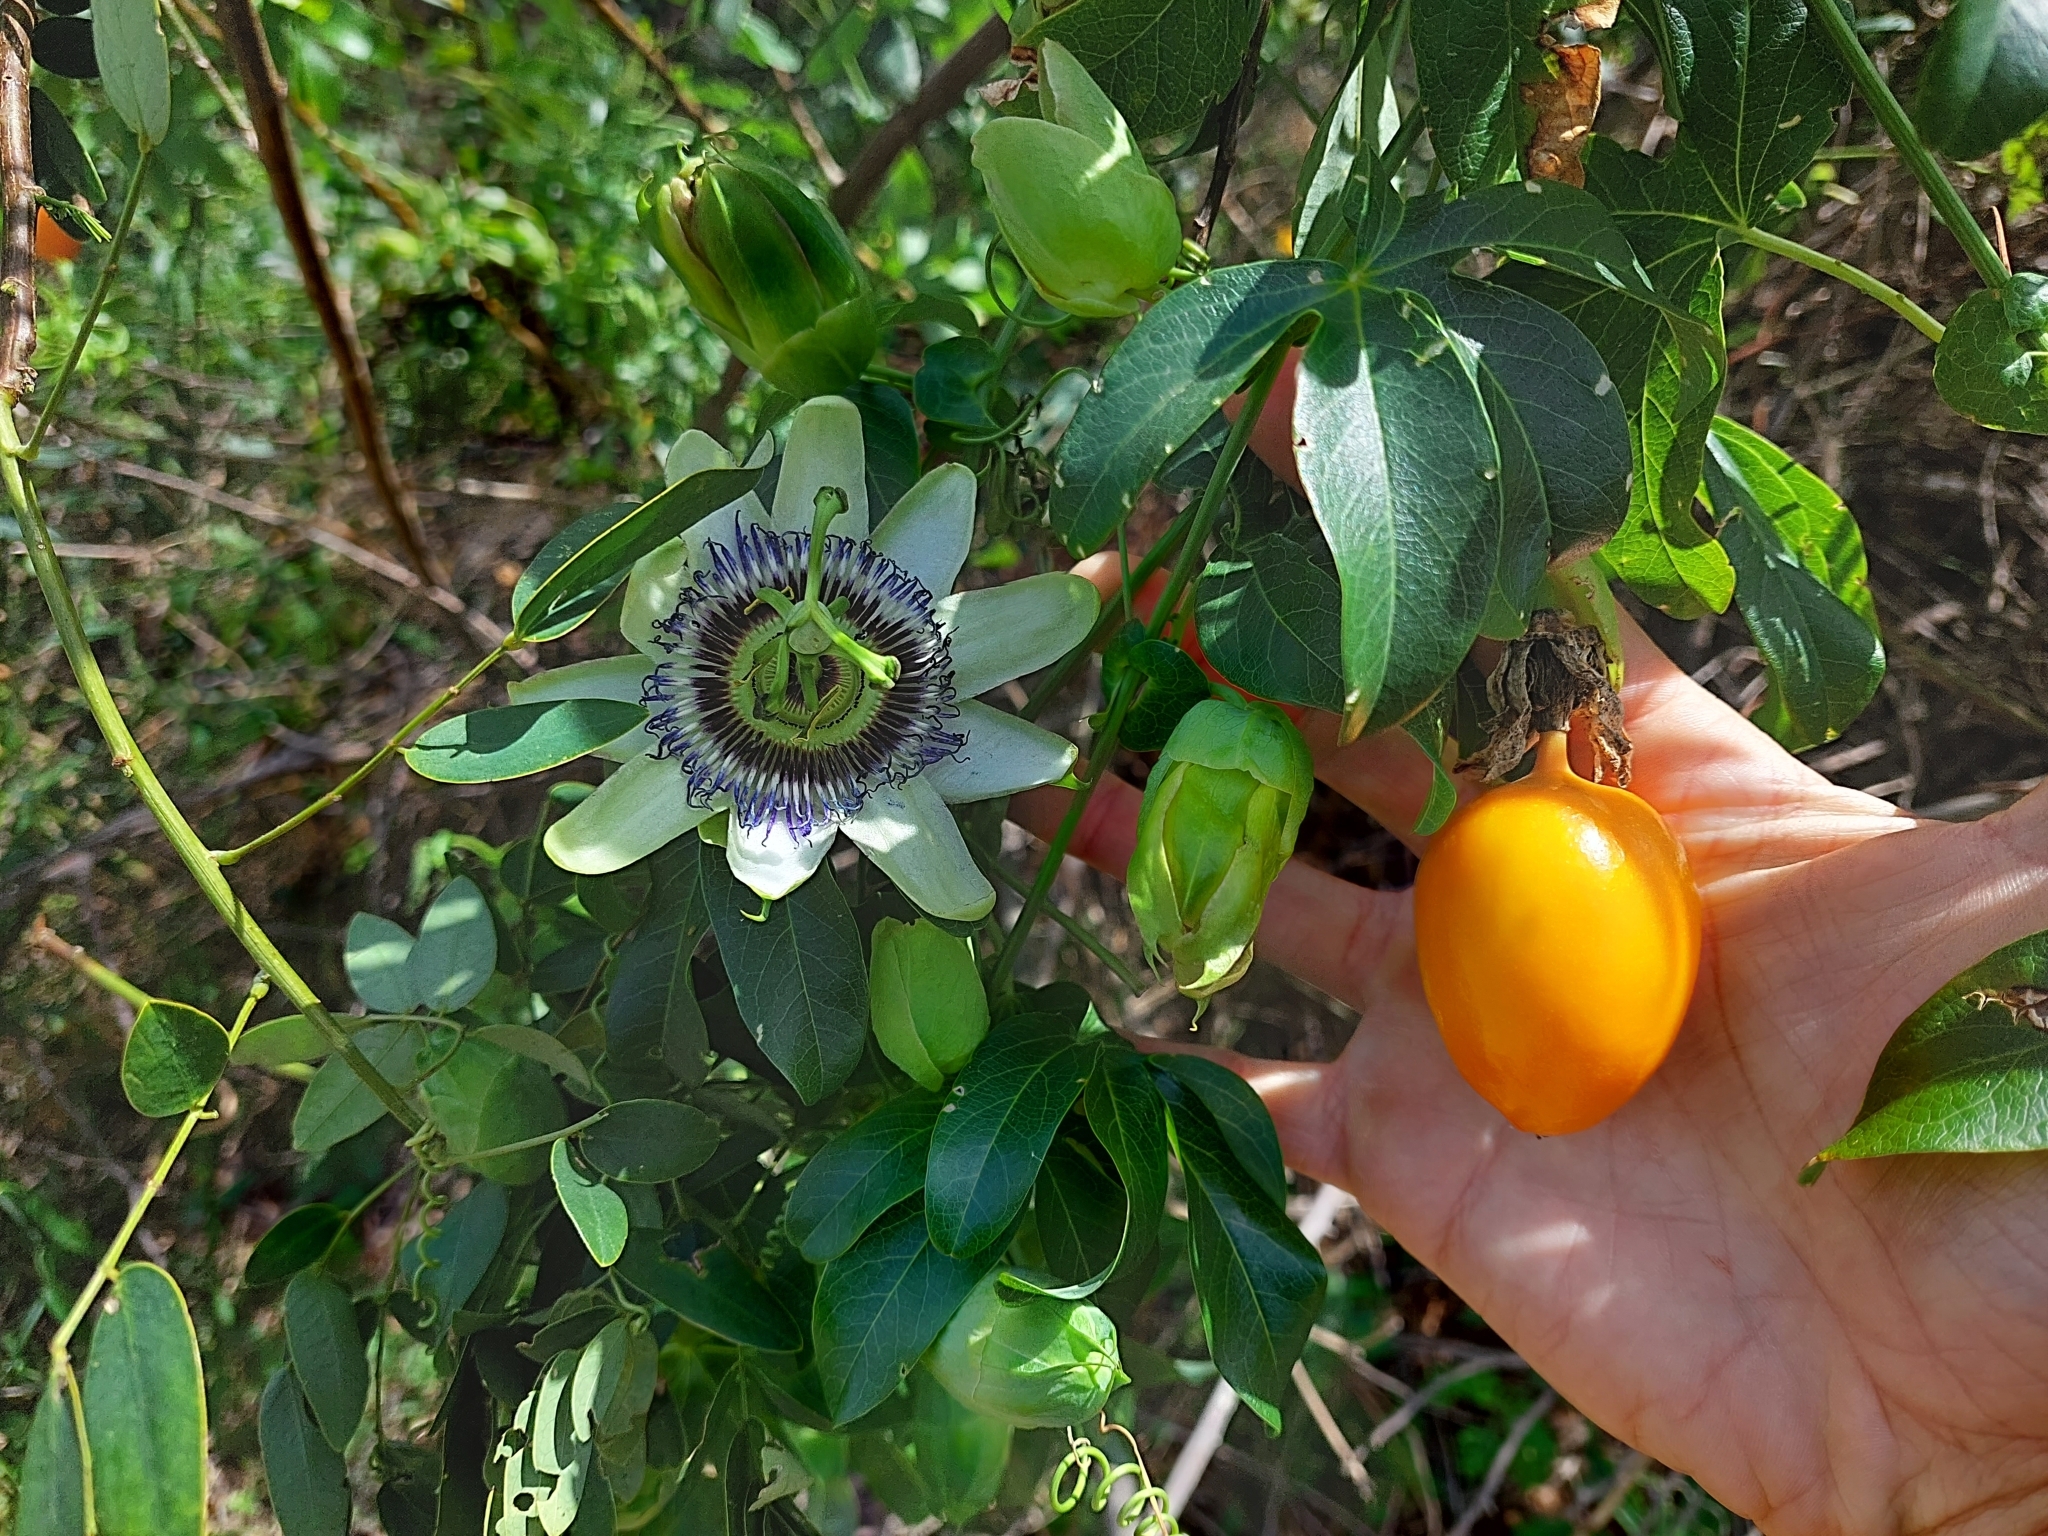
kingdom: Plantae
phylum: Tracheophyta
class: Magnoliopsida
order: Malpighiales
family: Passifloraceae
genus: Passiflora
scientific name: Passiflora caerulea
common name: Blue passionflower
